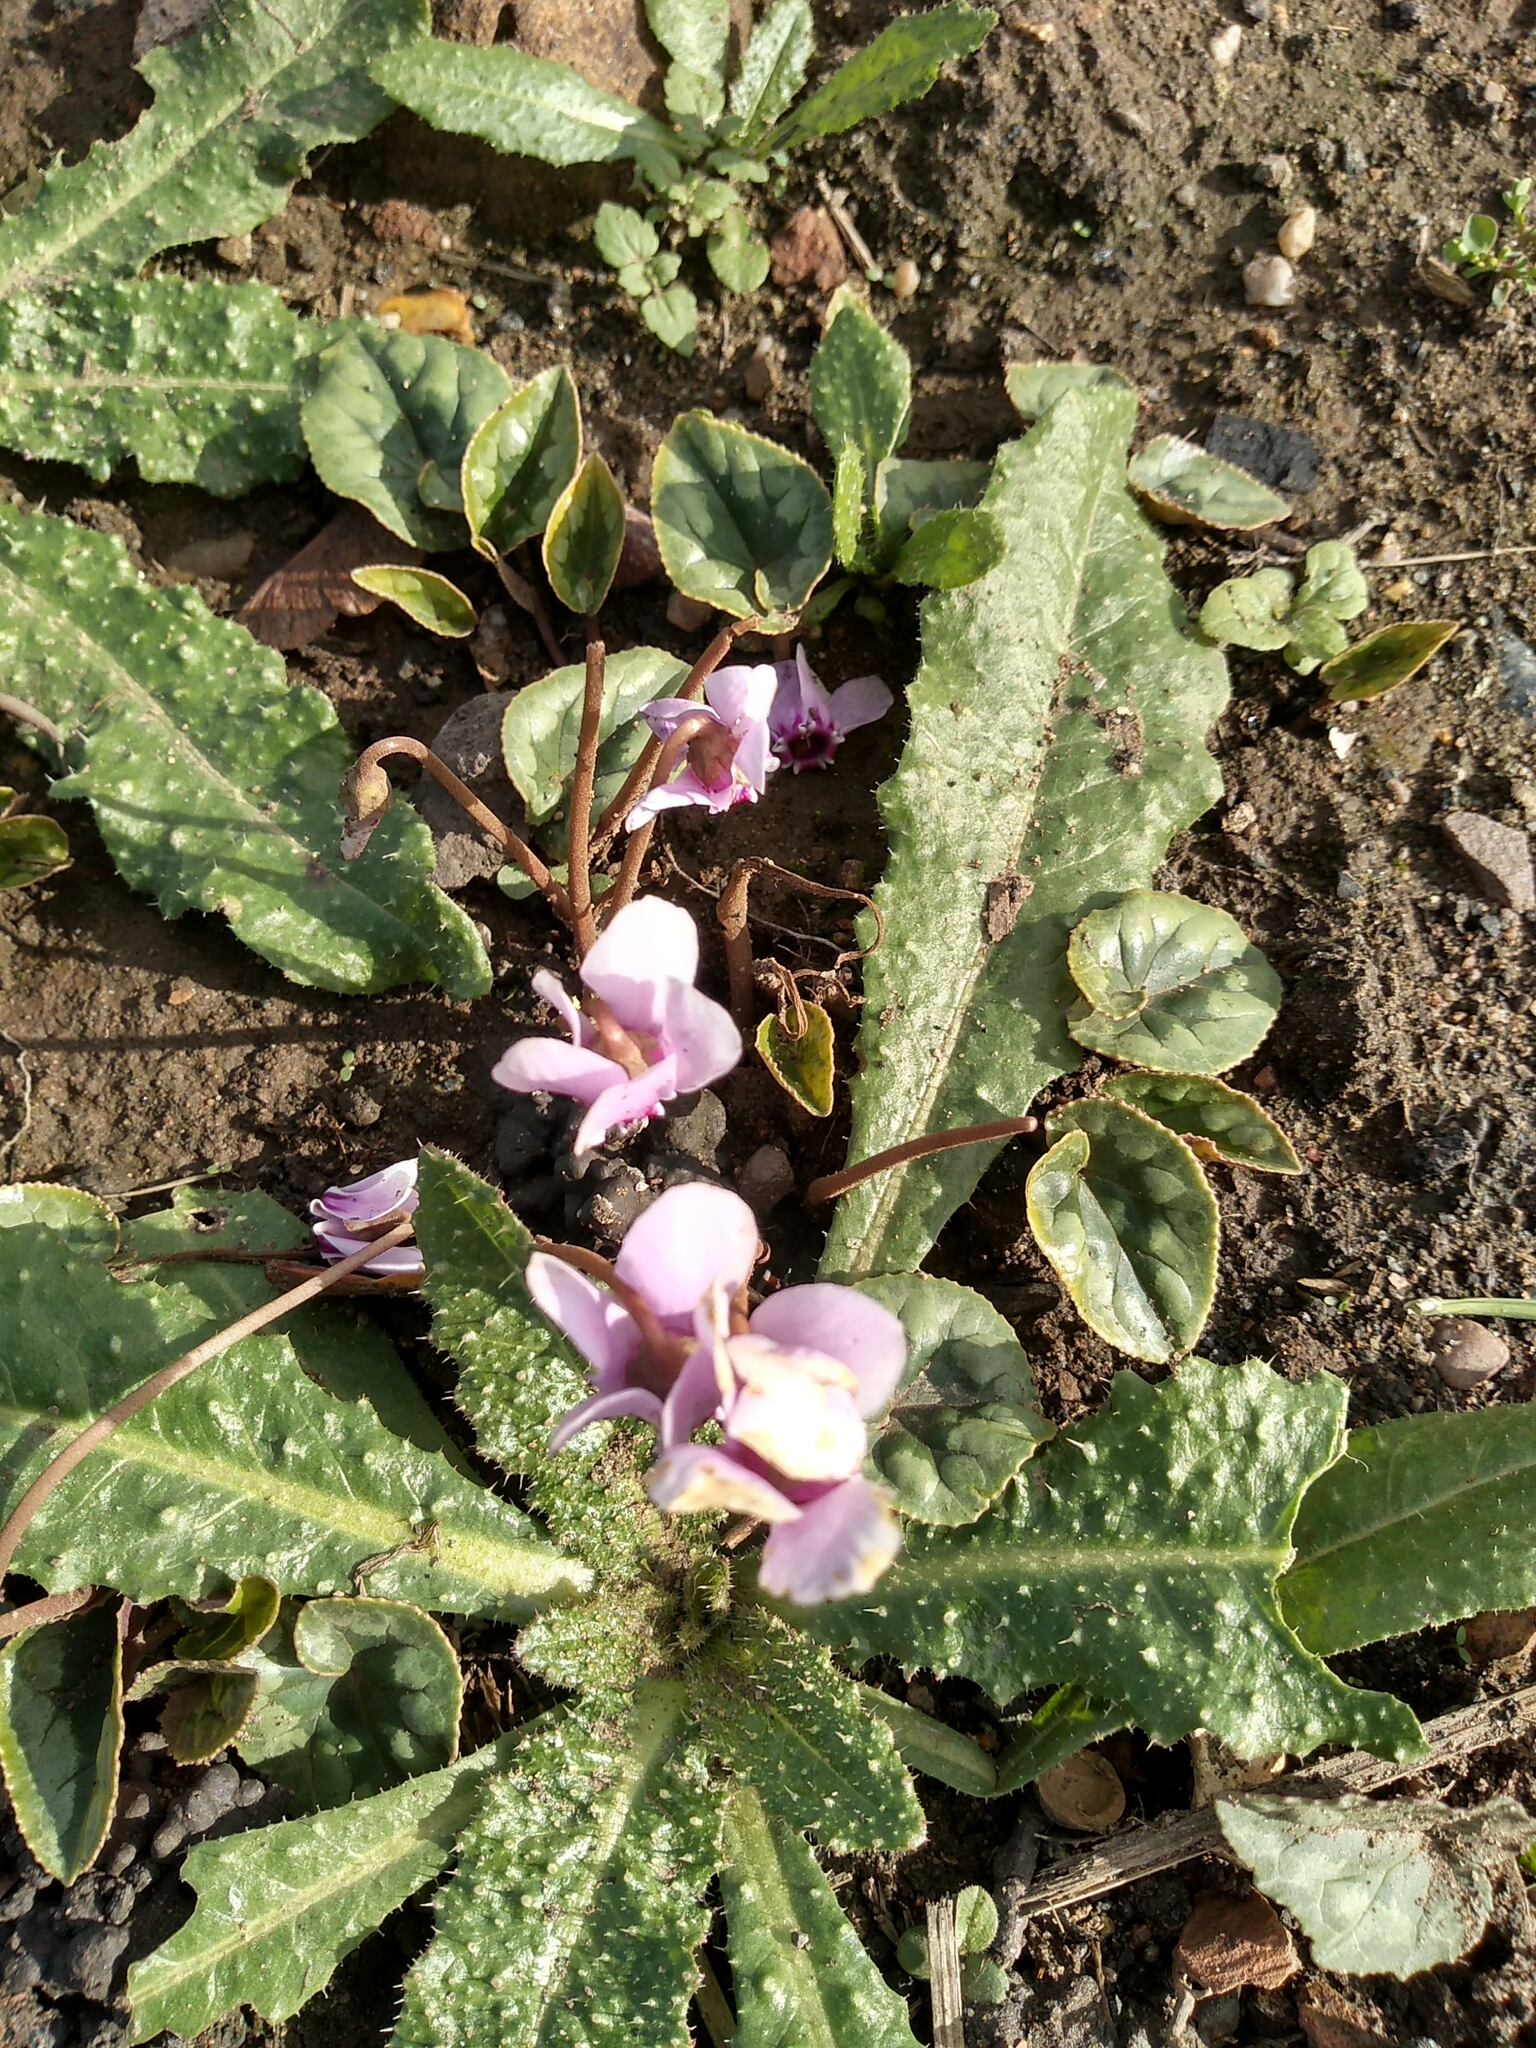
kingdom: Plantae
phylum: Tracheophyta
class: Magnoliopsida
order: Ericales
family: Primulaceae
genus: Cyclamen
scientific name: Cyclamen hederifolium
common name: Sowbread
